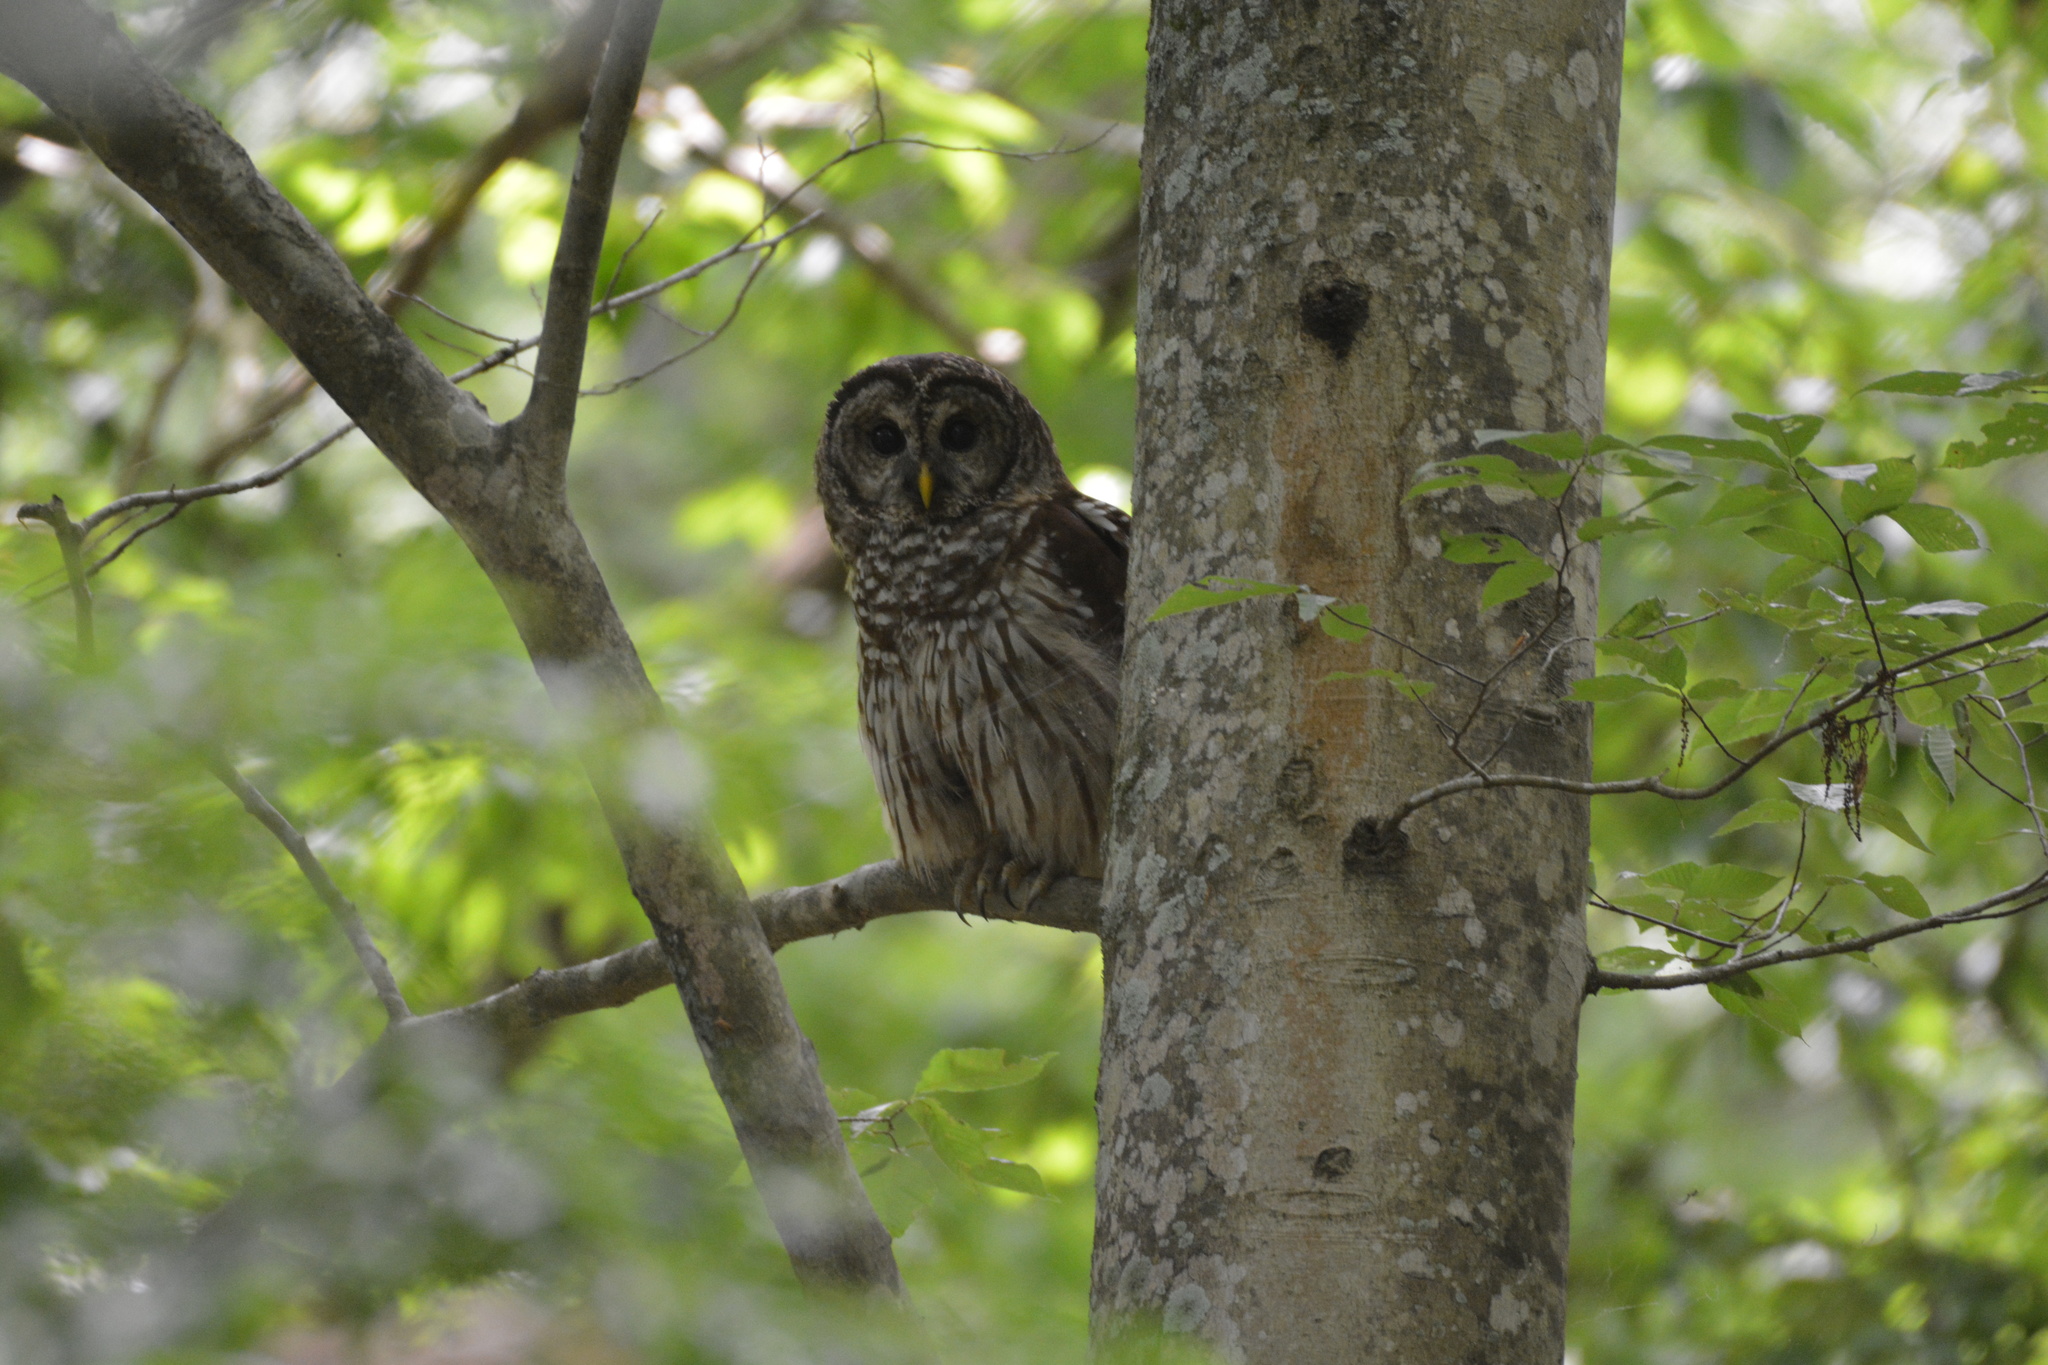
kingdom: Animalia
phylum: Chordata
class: Aves
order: Strigiformes
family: Strigidae
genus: Strix
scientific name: Strix varia
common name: Barred owl
